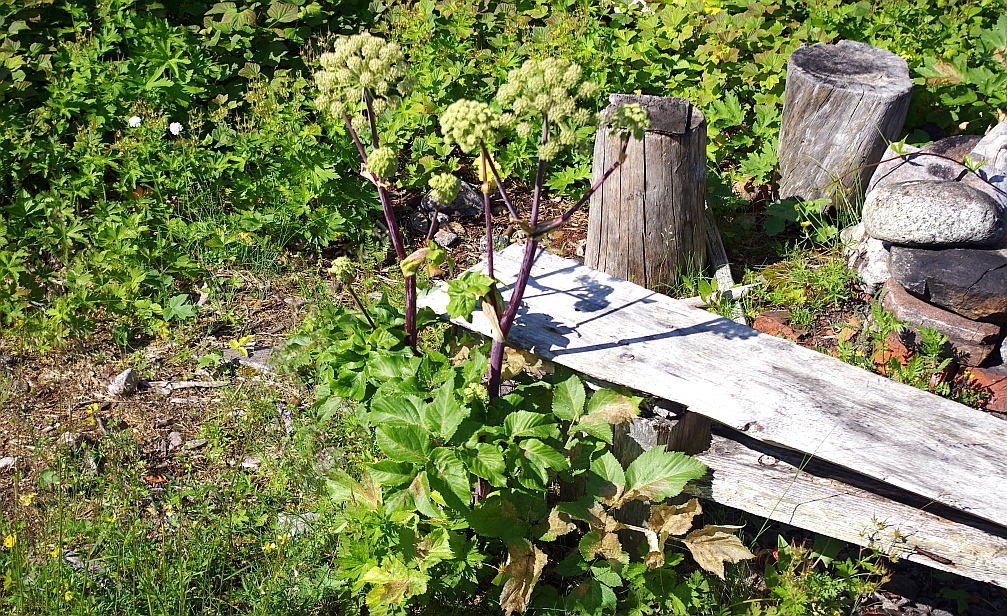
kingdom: Plantae
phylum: Tracheophyta
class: Magnoliopsida
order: Apiales
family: Apiaceae
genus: Angelica
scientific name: Angelica archangelica
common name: Garden angelica
